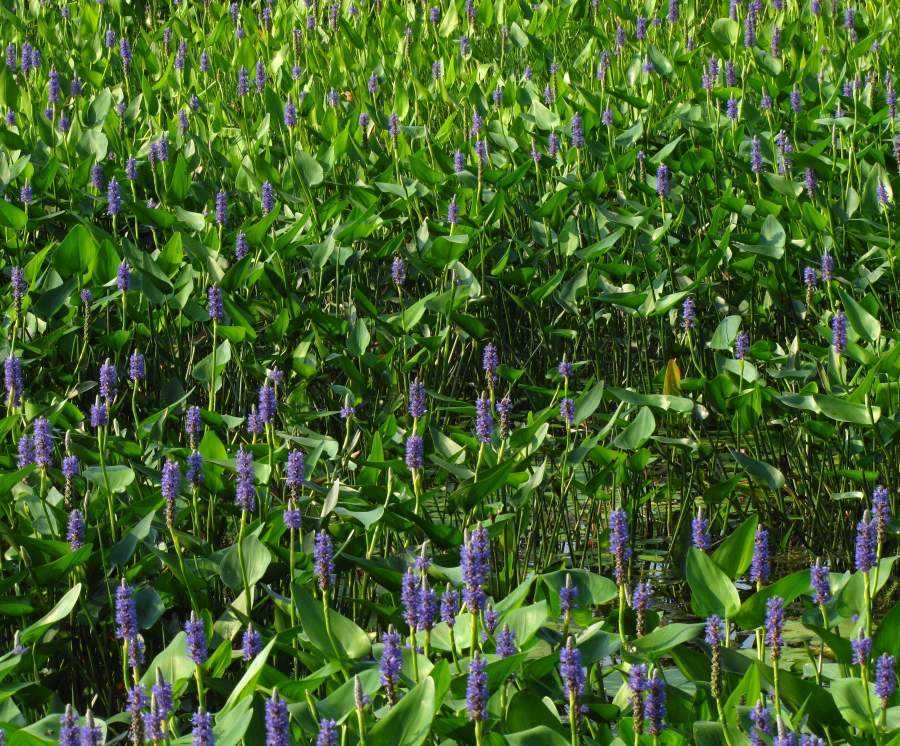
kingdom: Plantae
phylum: Tracheophyta
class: Liliopsida
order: Commelinales
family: Pontederiaceae
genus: Pontederia
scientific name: Pontederia cordata
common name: Pickerelweed
